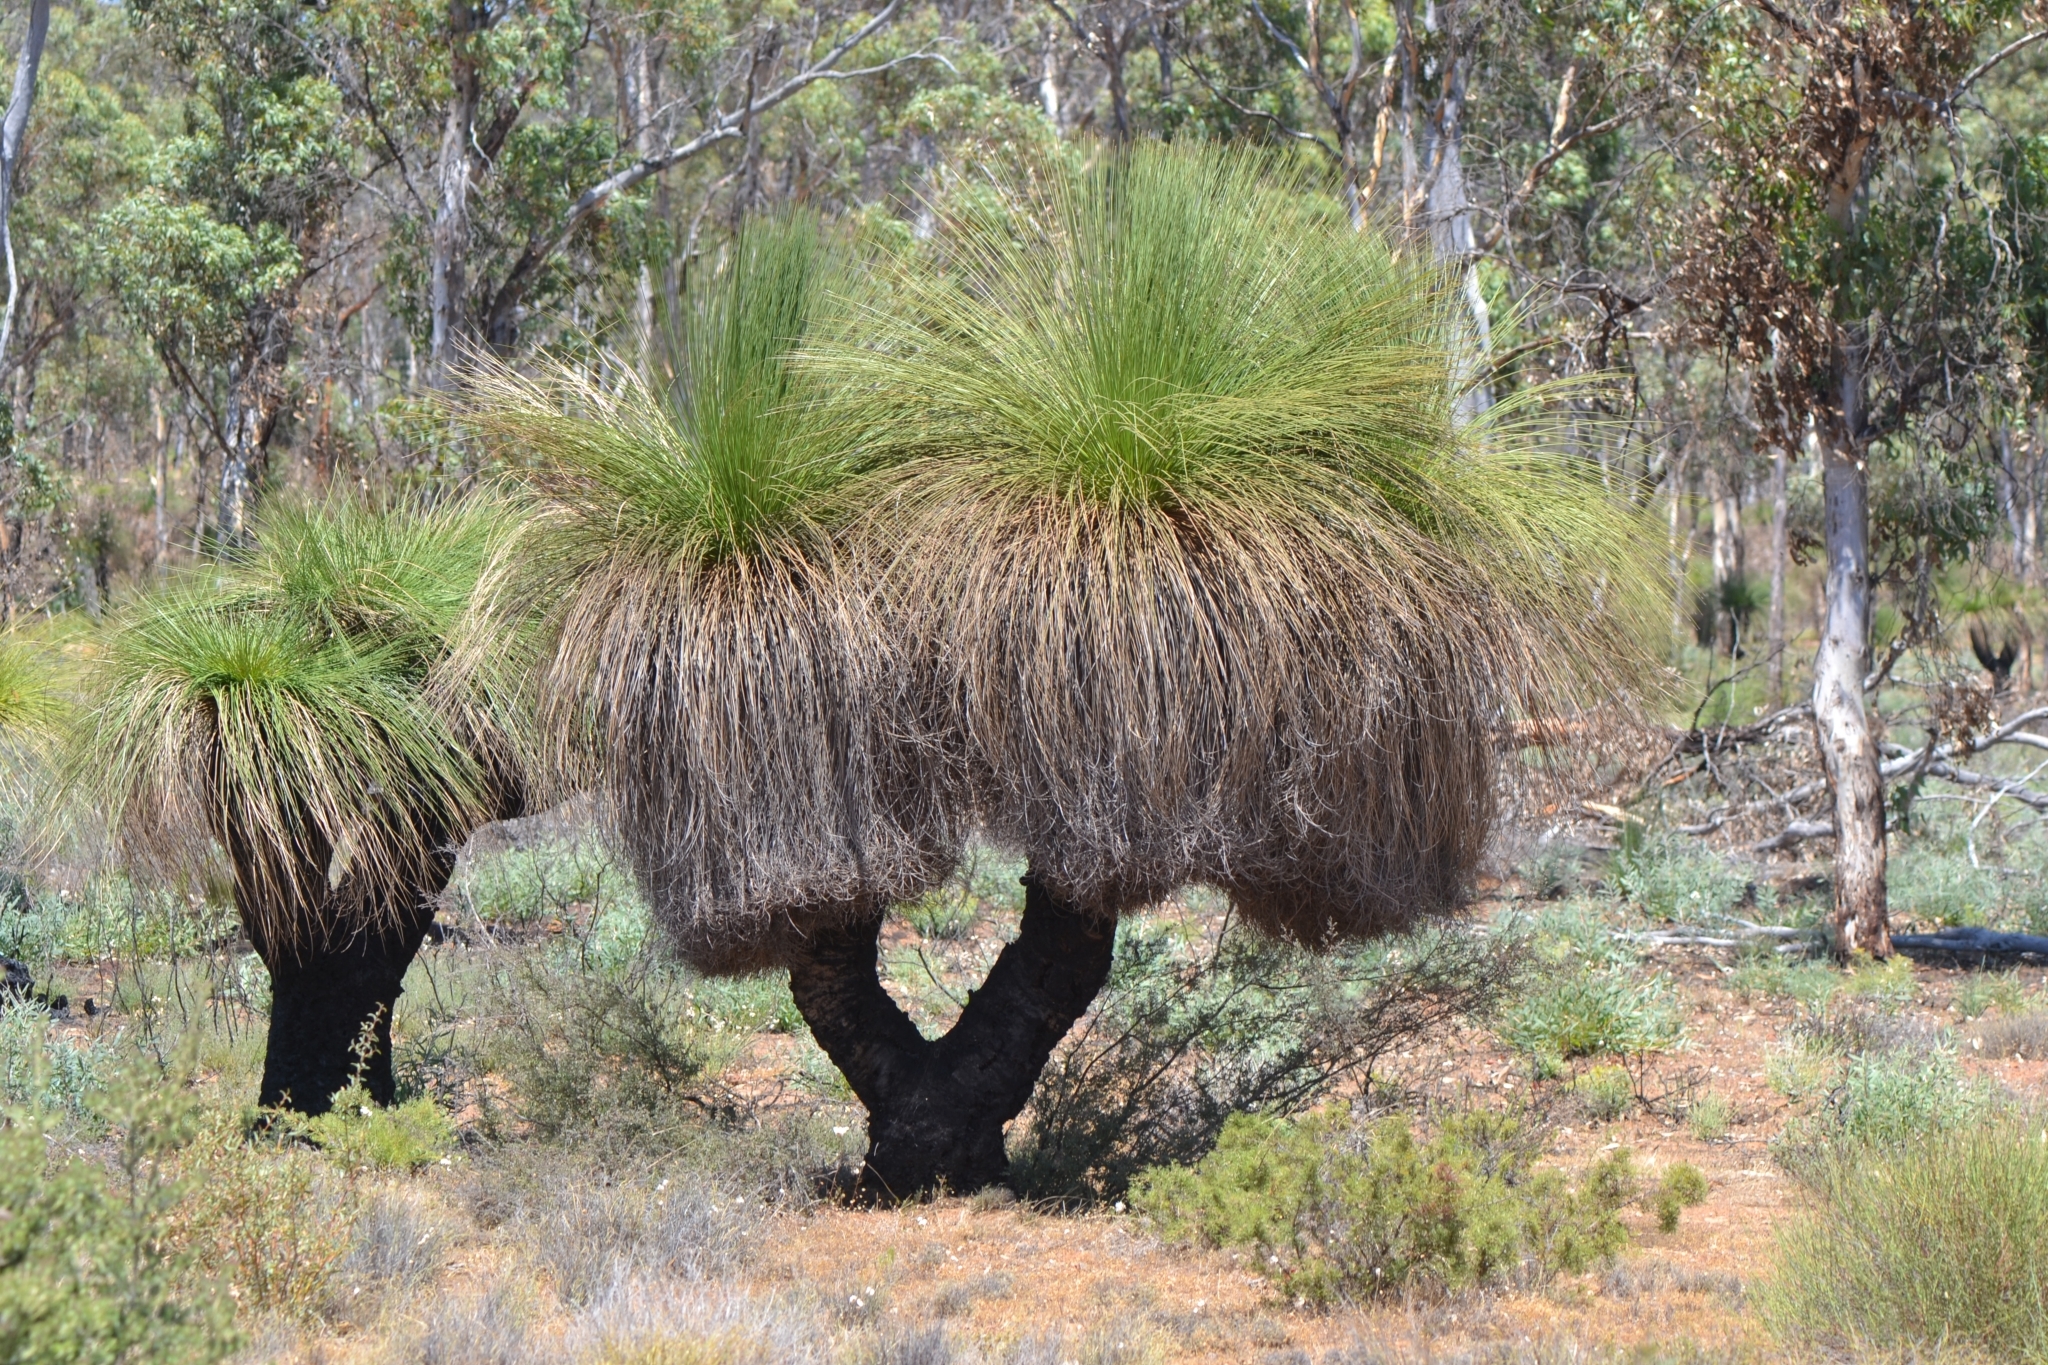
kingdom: Plantae
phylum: Tracheophyta
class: Liliopsida
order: Asparagales
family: Asphodelaceae
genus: Xanthorrhoea
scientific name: Xanthorrhoea preissii
